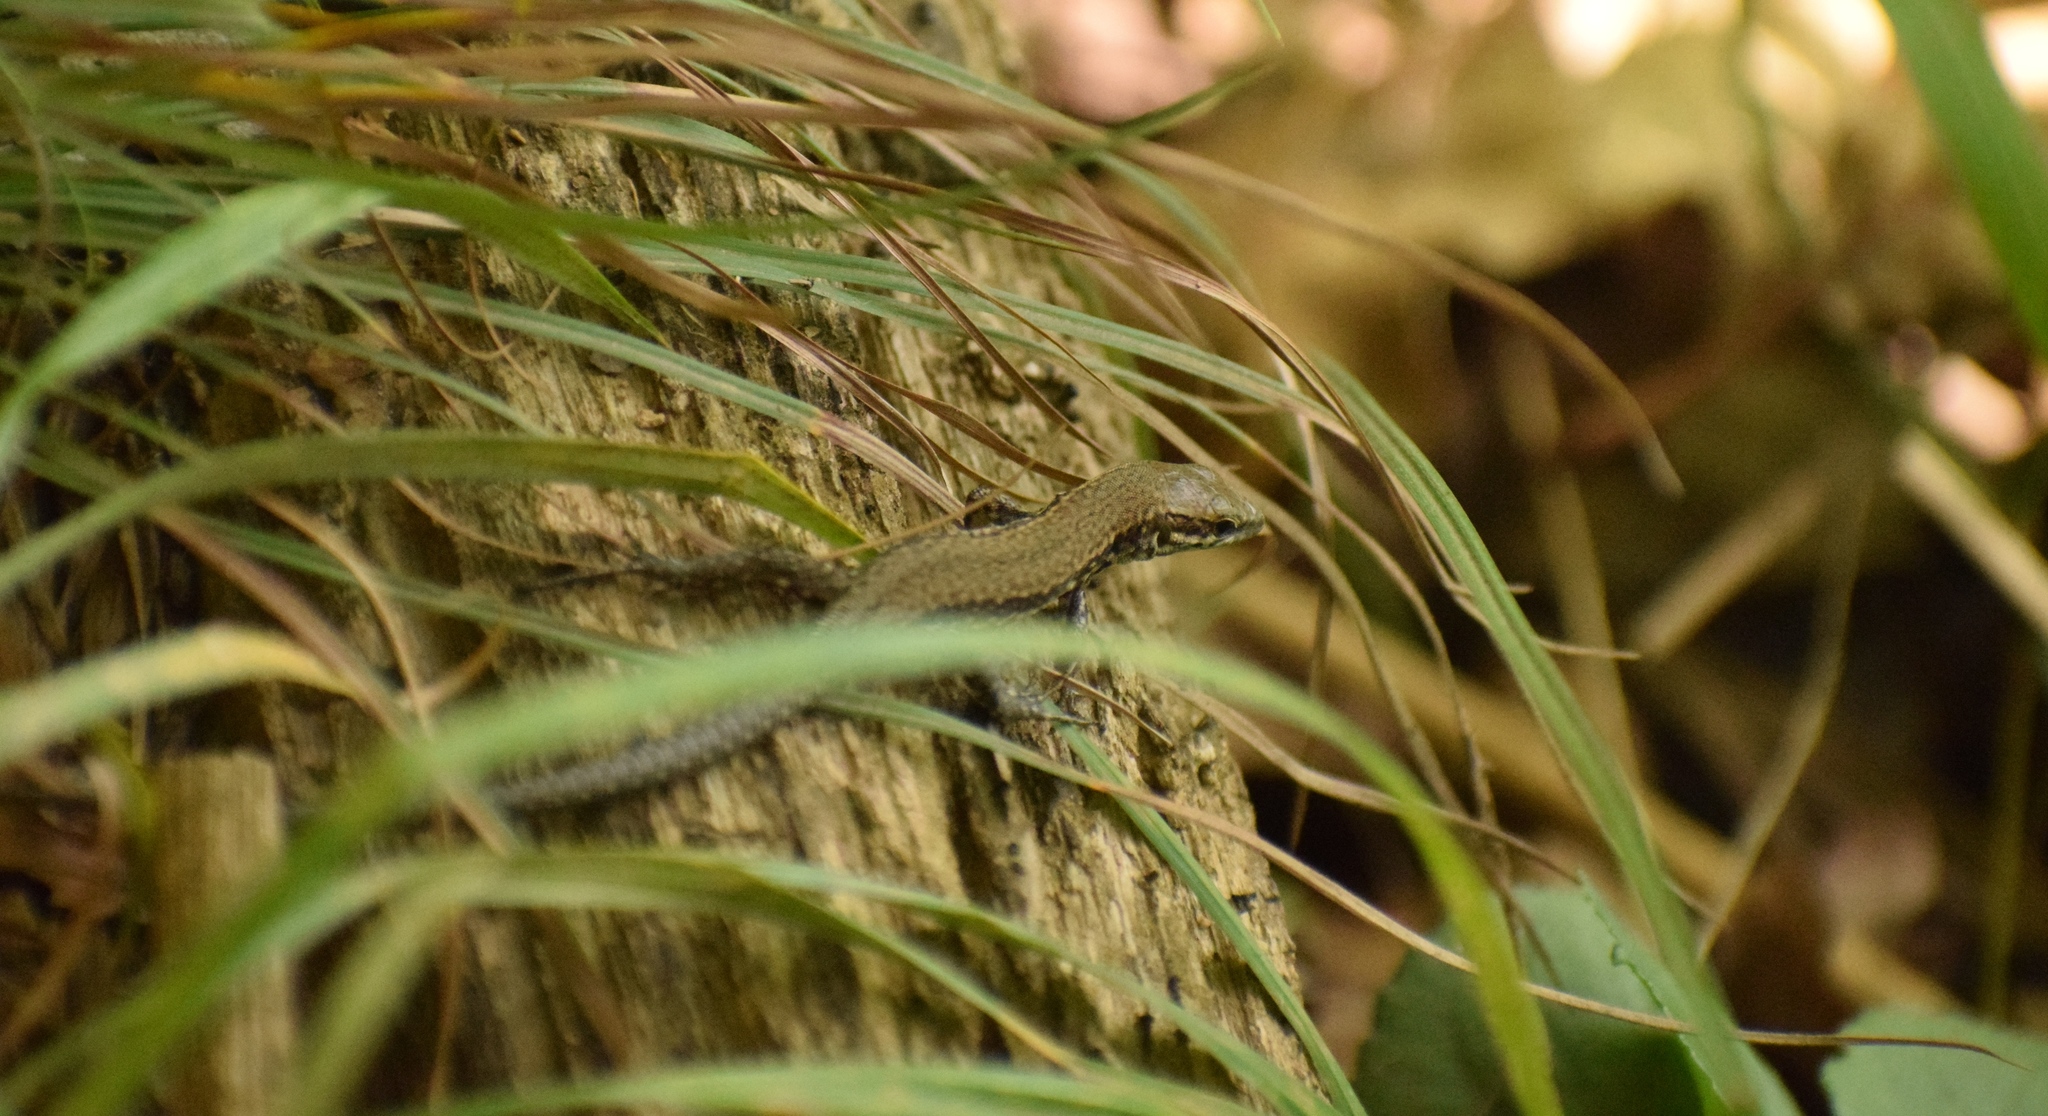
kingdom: Animalia
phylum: Chordata
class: Squamata
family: Lacertidae
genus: Podarcis
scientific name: Podarcis muralis
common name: Common wall lizard
